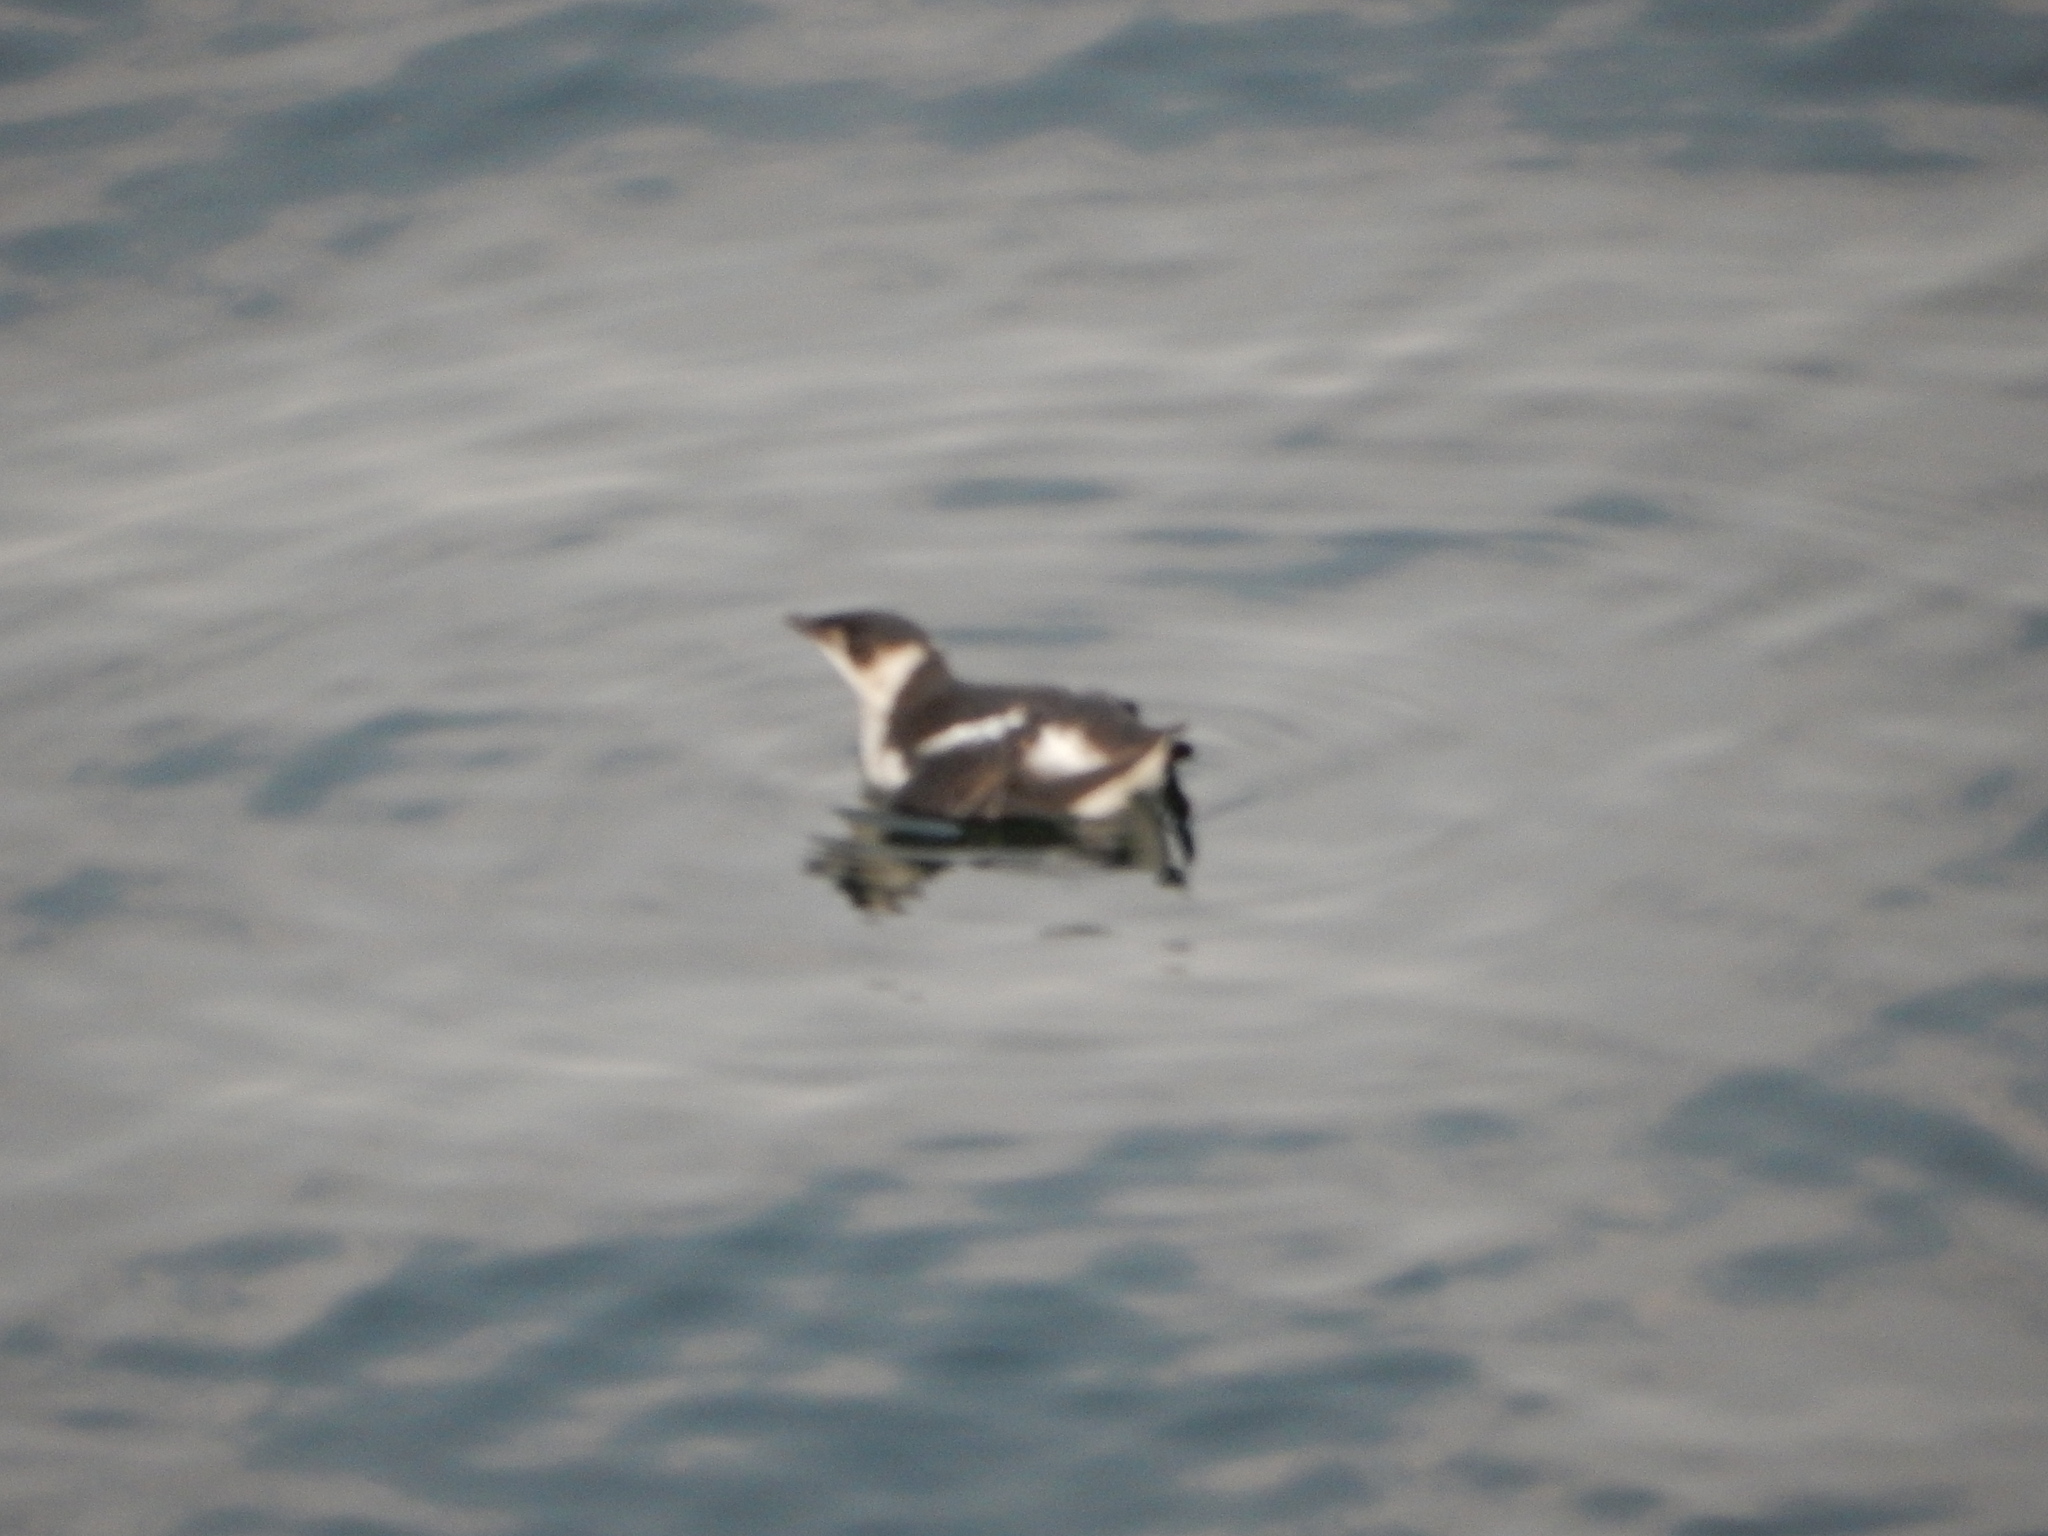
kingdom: Animalia
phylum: Chordata
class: Aves
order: Charadriiformes
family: Alcidae
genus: Brachyramphus
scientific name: Brachyramphus marmoratus
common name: Marbled murrelet
